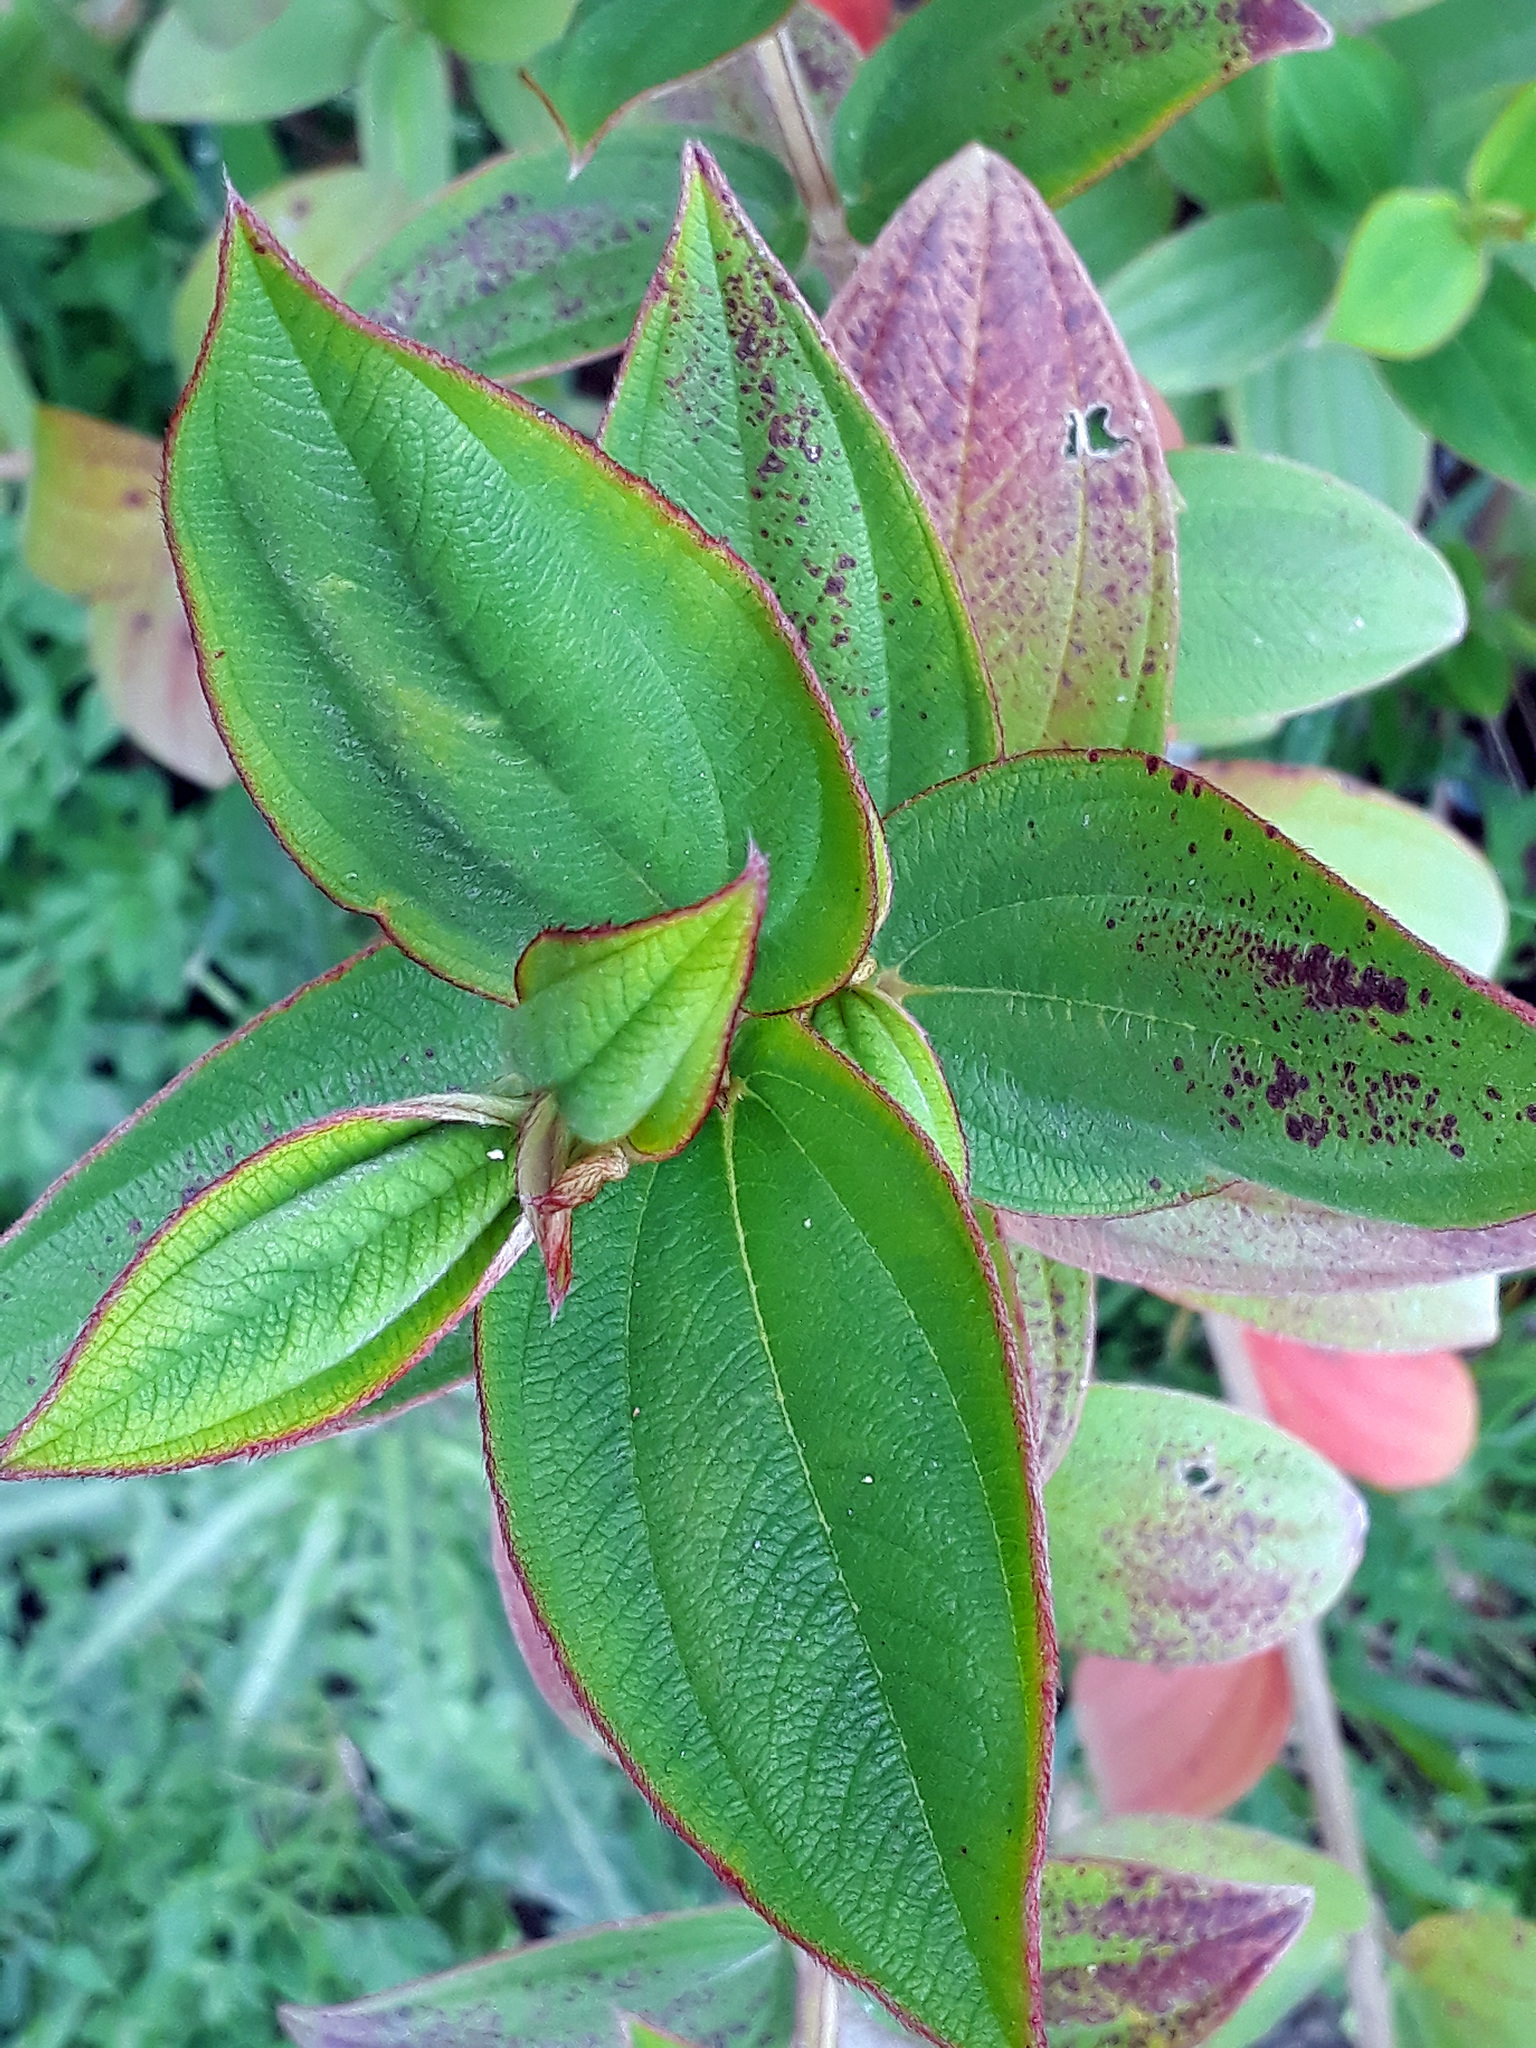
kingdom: Plantae
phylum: Tracheophyta
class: Magnoliopsida
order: Myrtales
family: Melastomataceae
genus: Pleroma
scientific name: Pleroma urvilleanum
